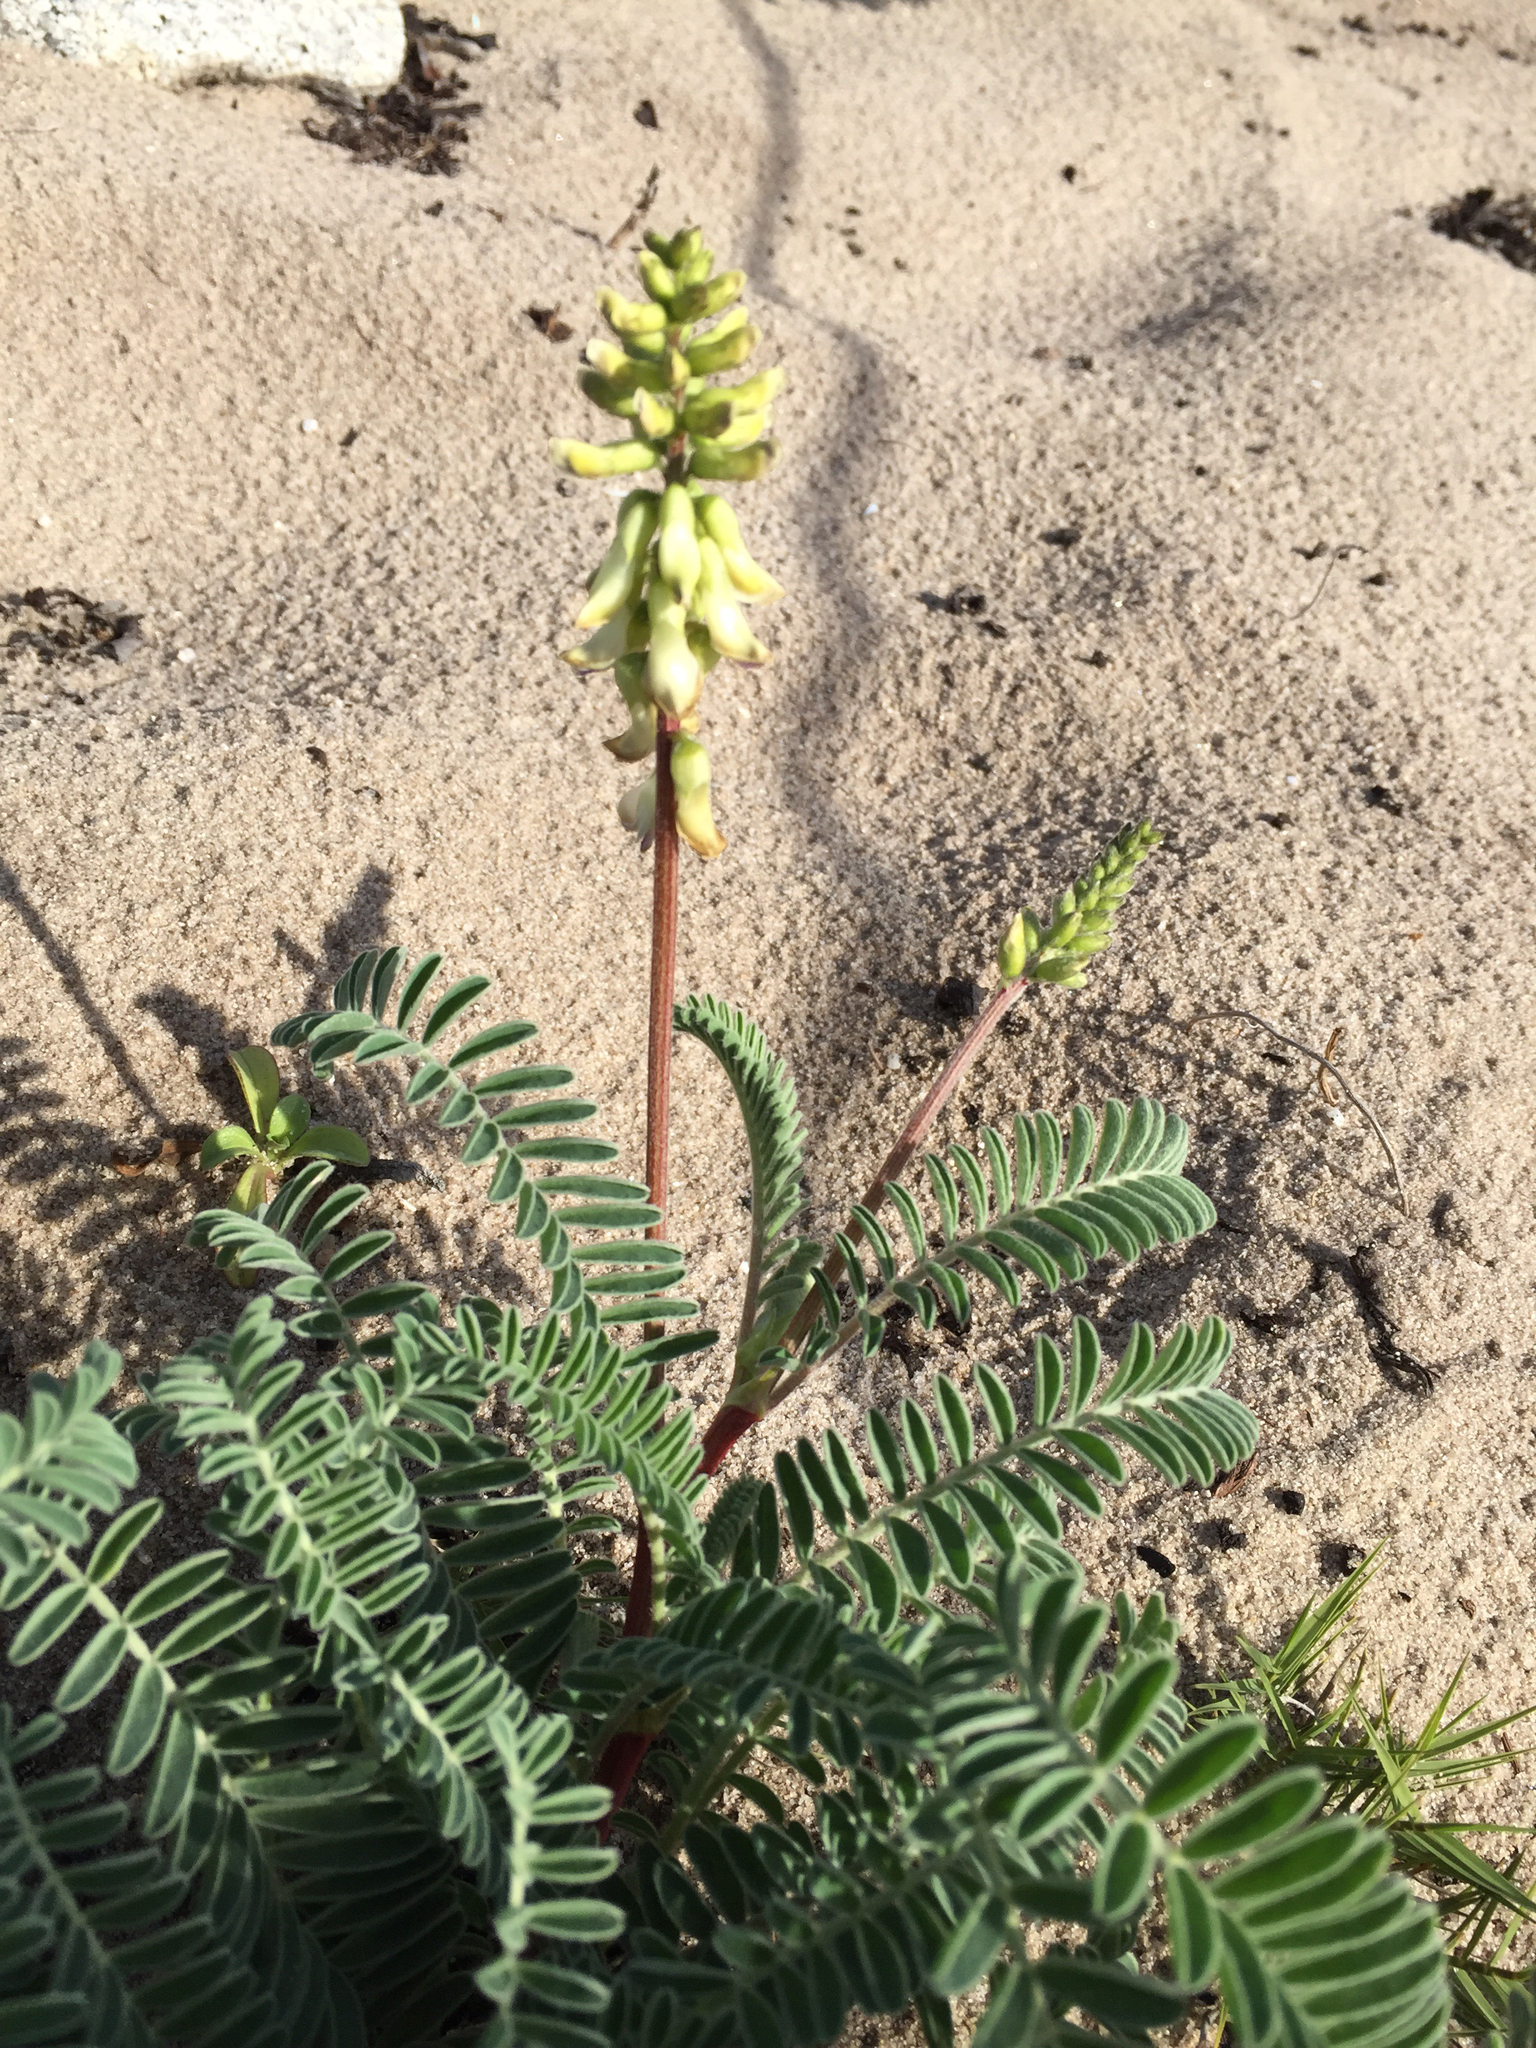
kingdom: Plantae
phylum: Tracheophyta
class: Magnoliopsida
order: Fabales
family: Fabaceae
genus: Astragalus
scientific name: Astragalus nuttallii
